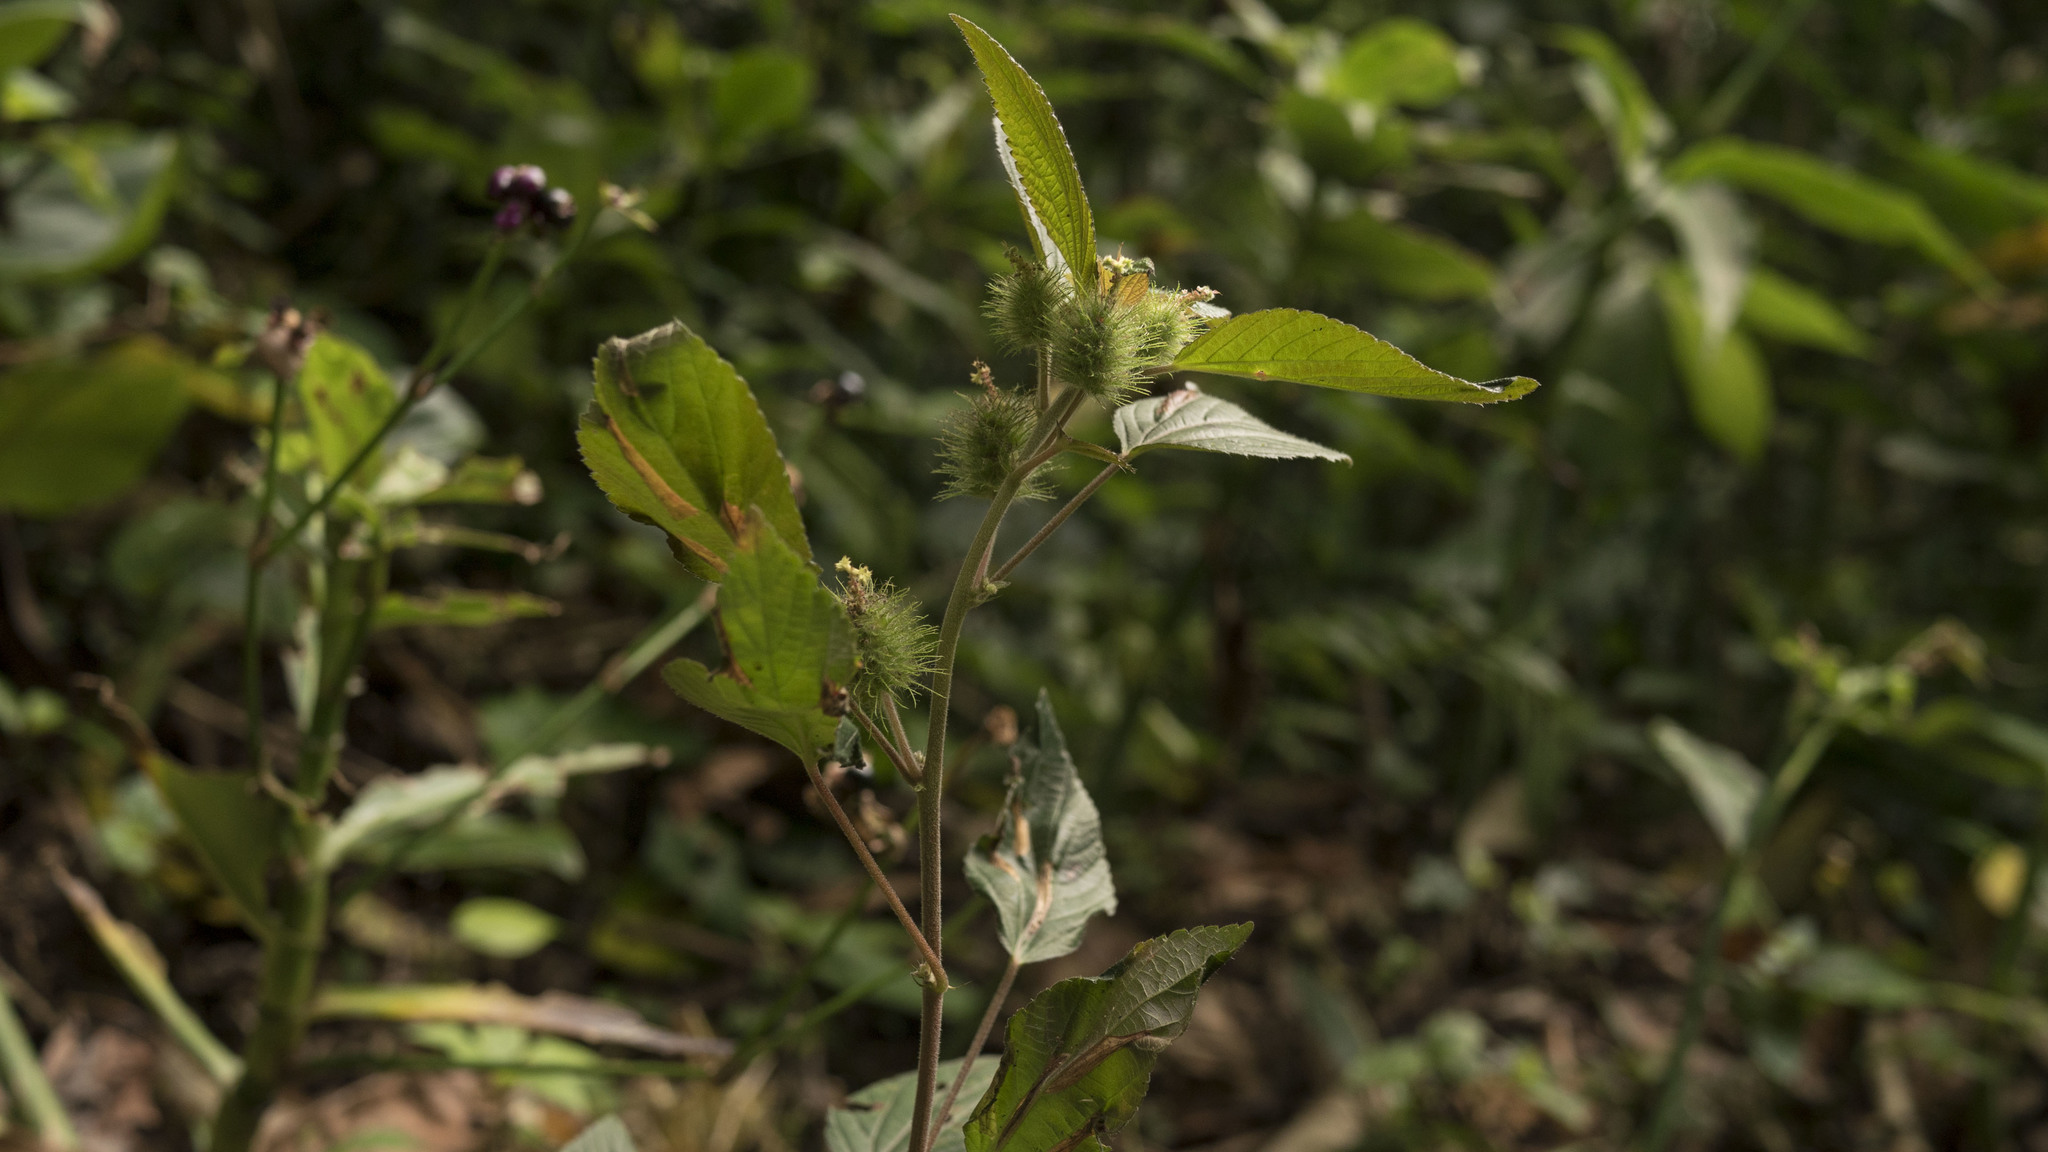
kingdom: Plantae
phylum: Tracheophyta
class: Magnoliopsida
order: Malpighiales
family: Euphorbiaceae
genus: Acalypha
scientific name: Acalypha alopecuroidea
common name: Foxtail copperleaf
